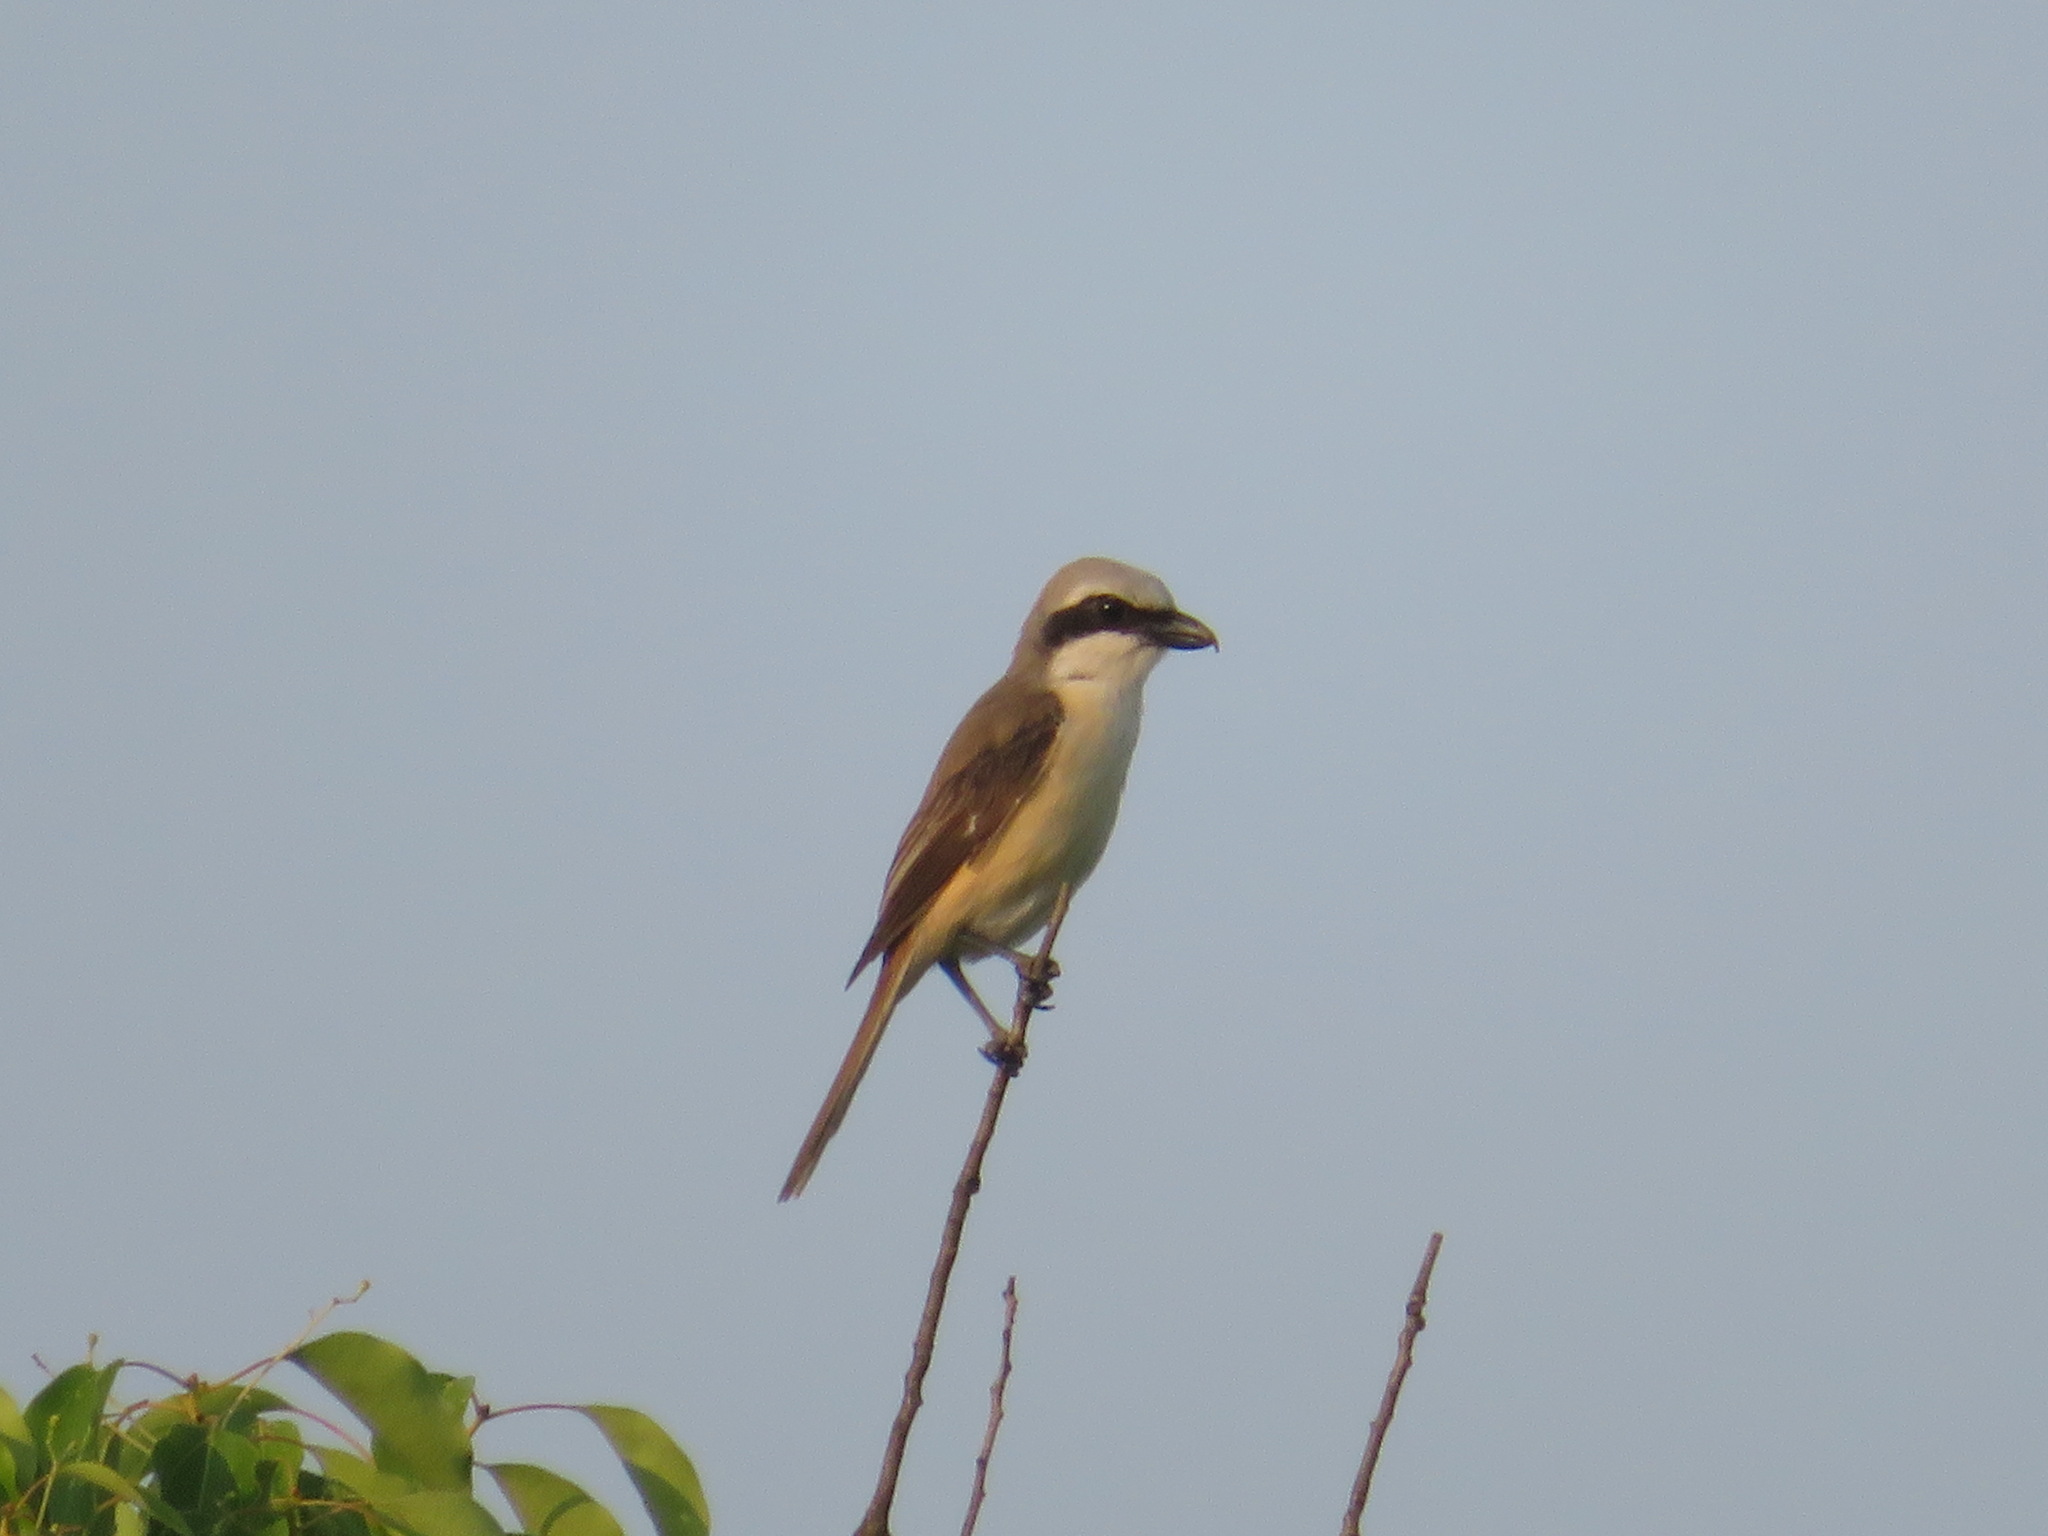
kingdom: Animalia
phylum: Chordata
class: Aves
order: Passeriformes
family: Laniidae
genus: Lanius
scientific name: Lanius cristatus
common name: Brown shrike
